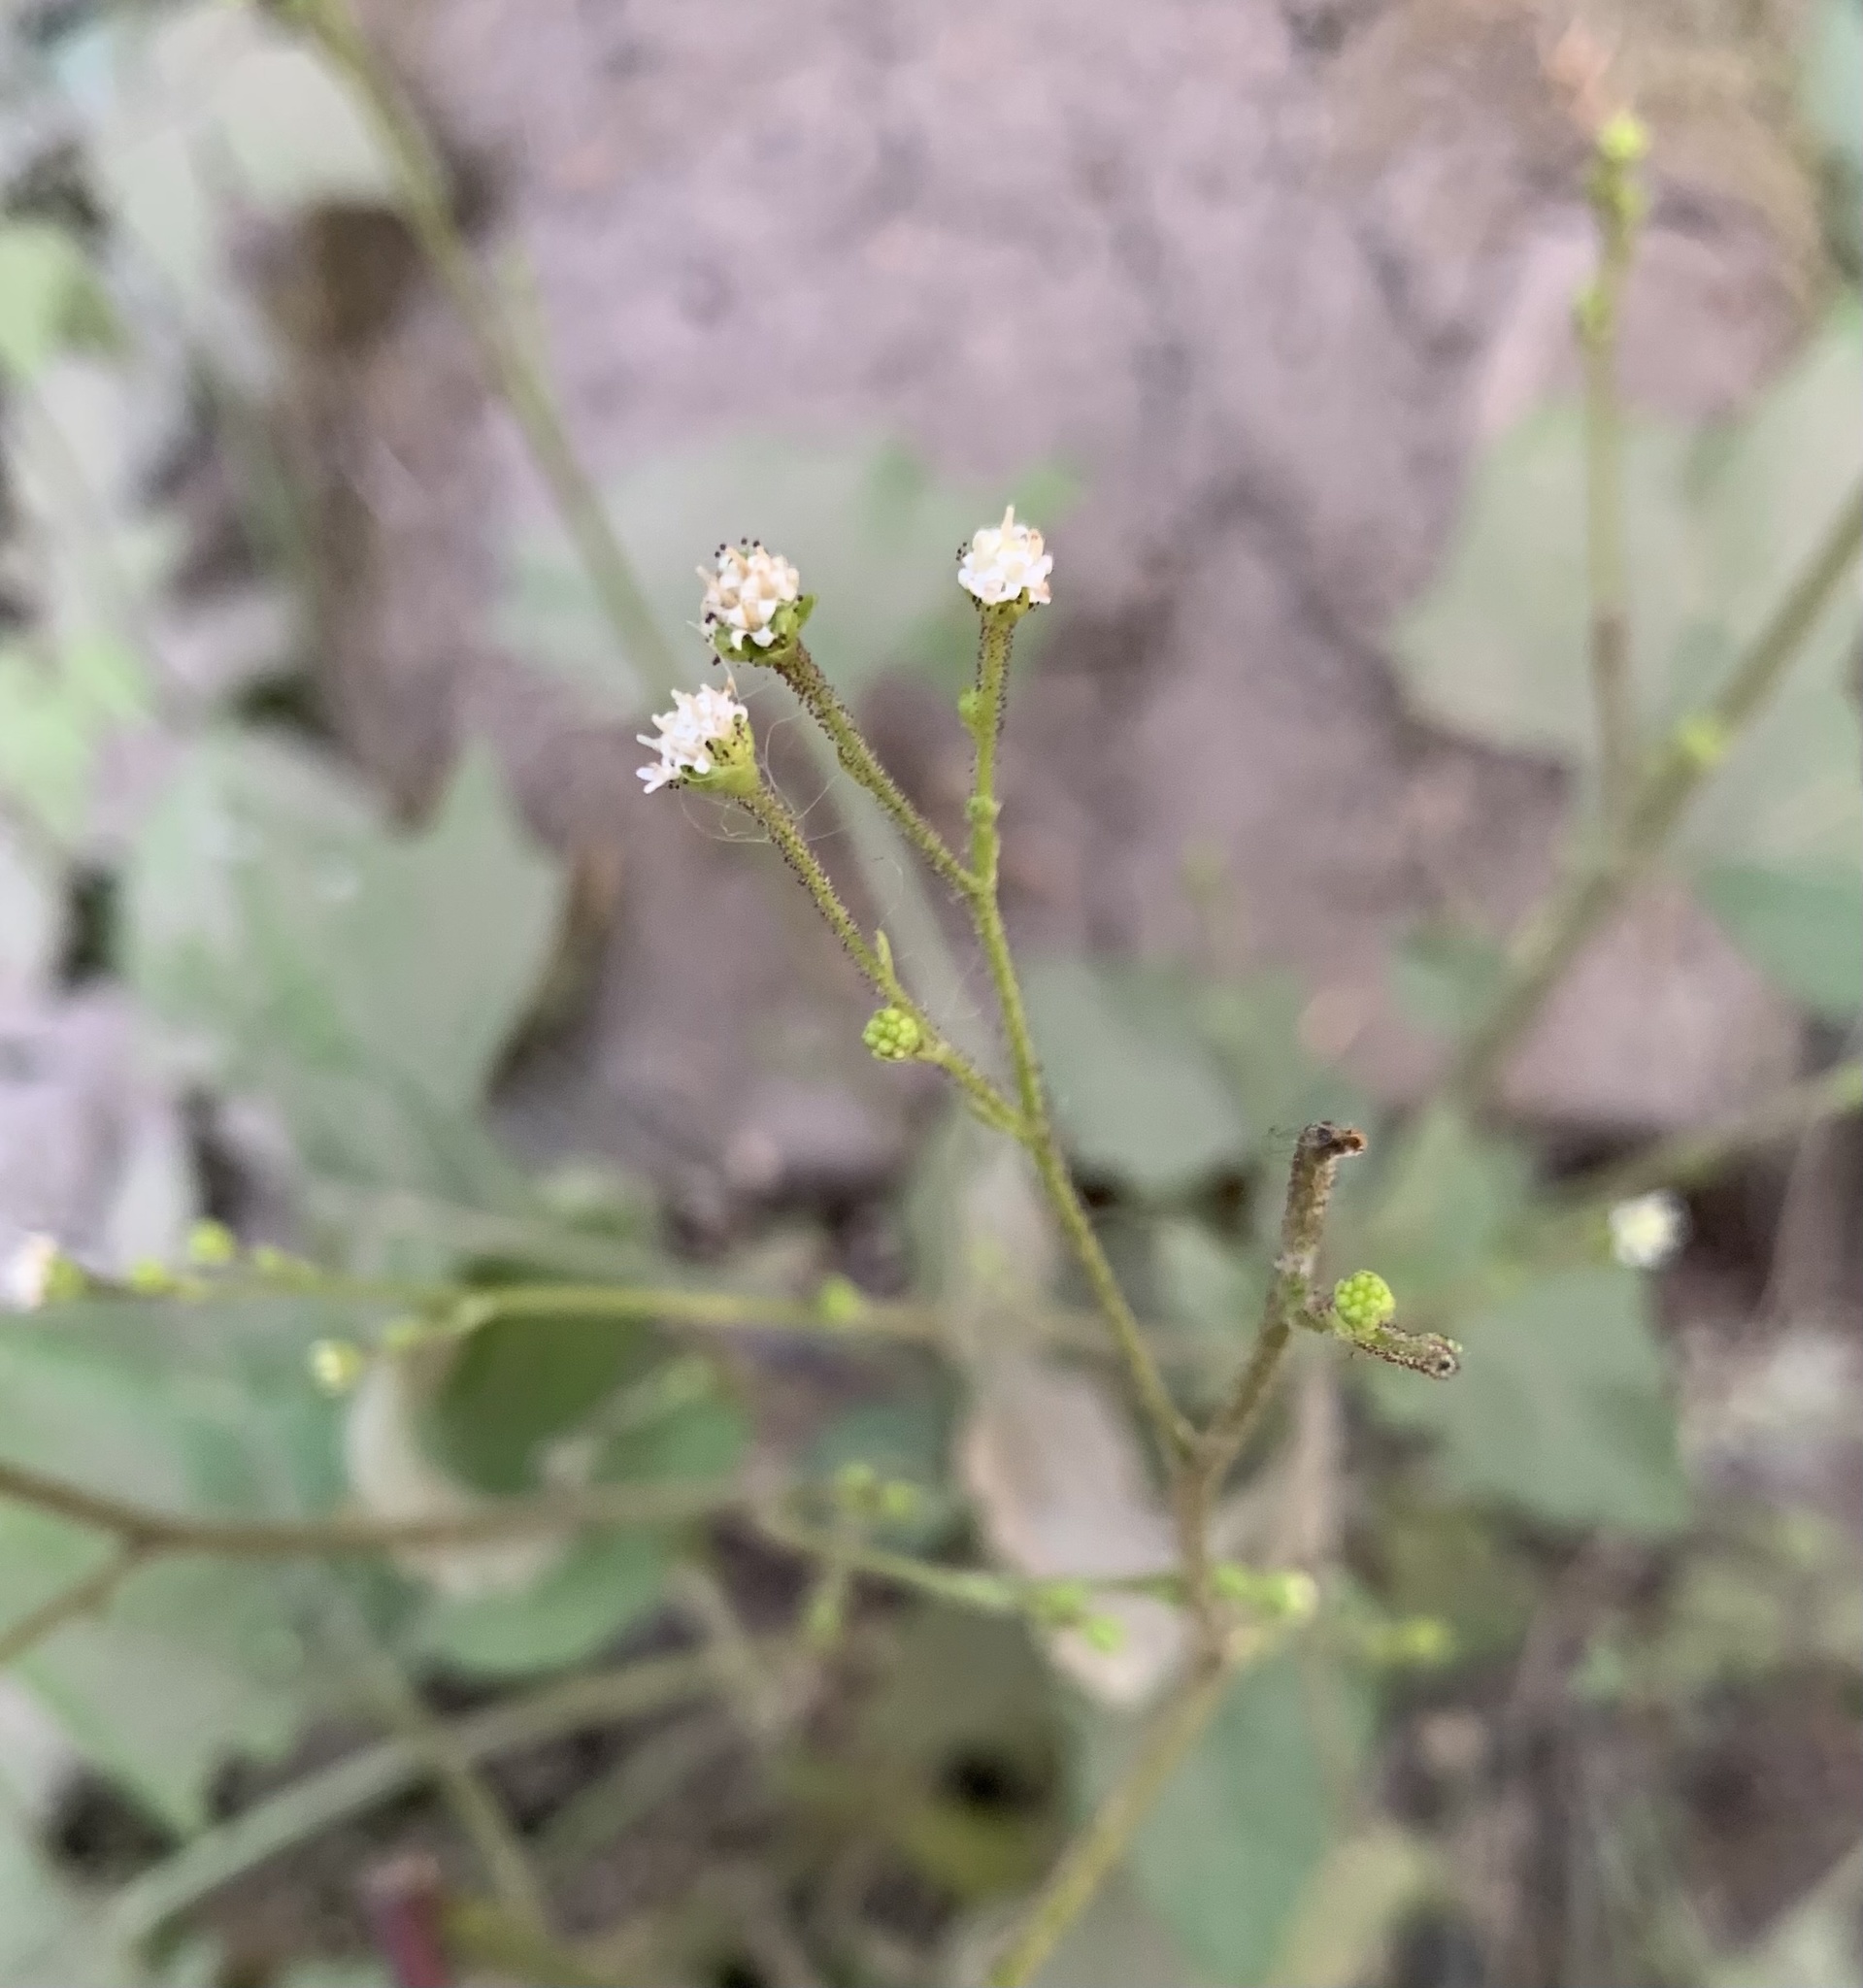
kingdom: Plantae
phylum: Tracheophyta
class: Magnoliopsida
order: Asterales
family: Asteraceae
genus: Adenocaulon
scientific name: Adenocaulon bicolor
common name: Trailplant
